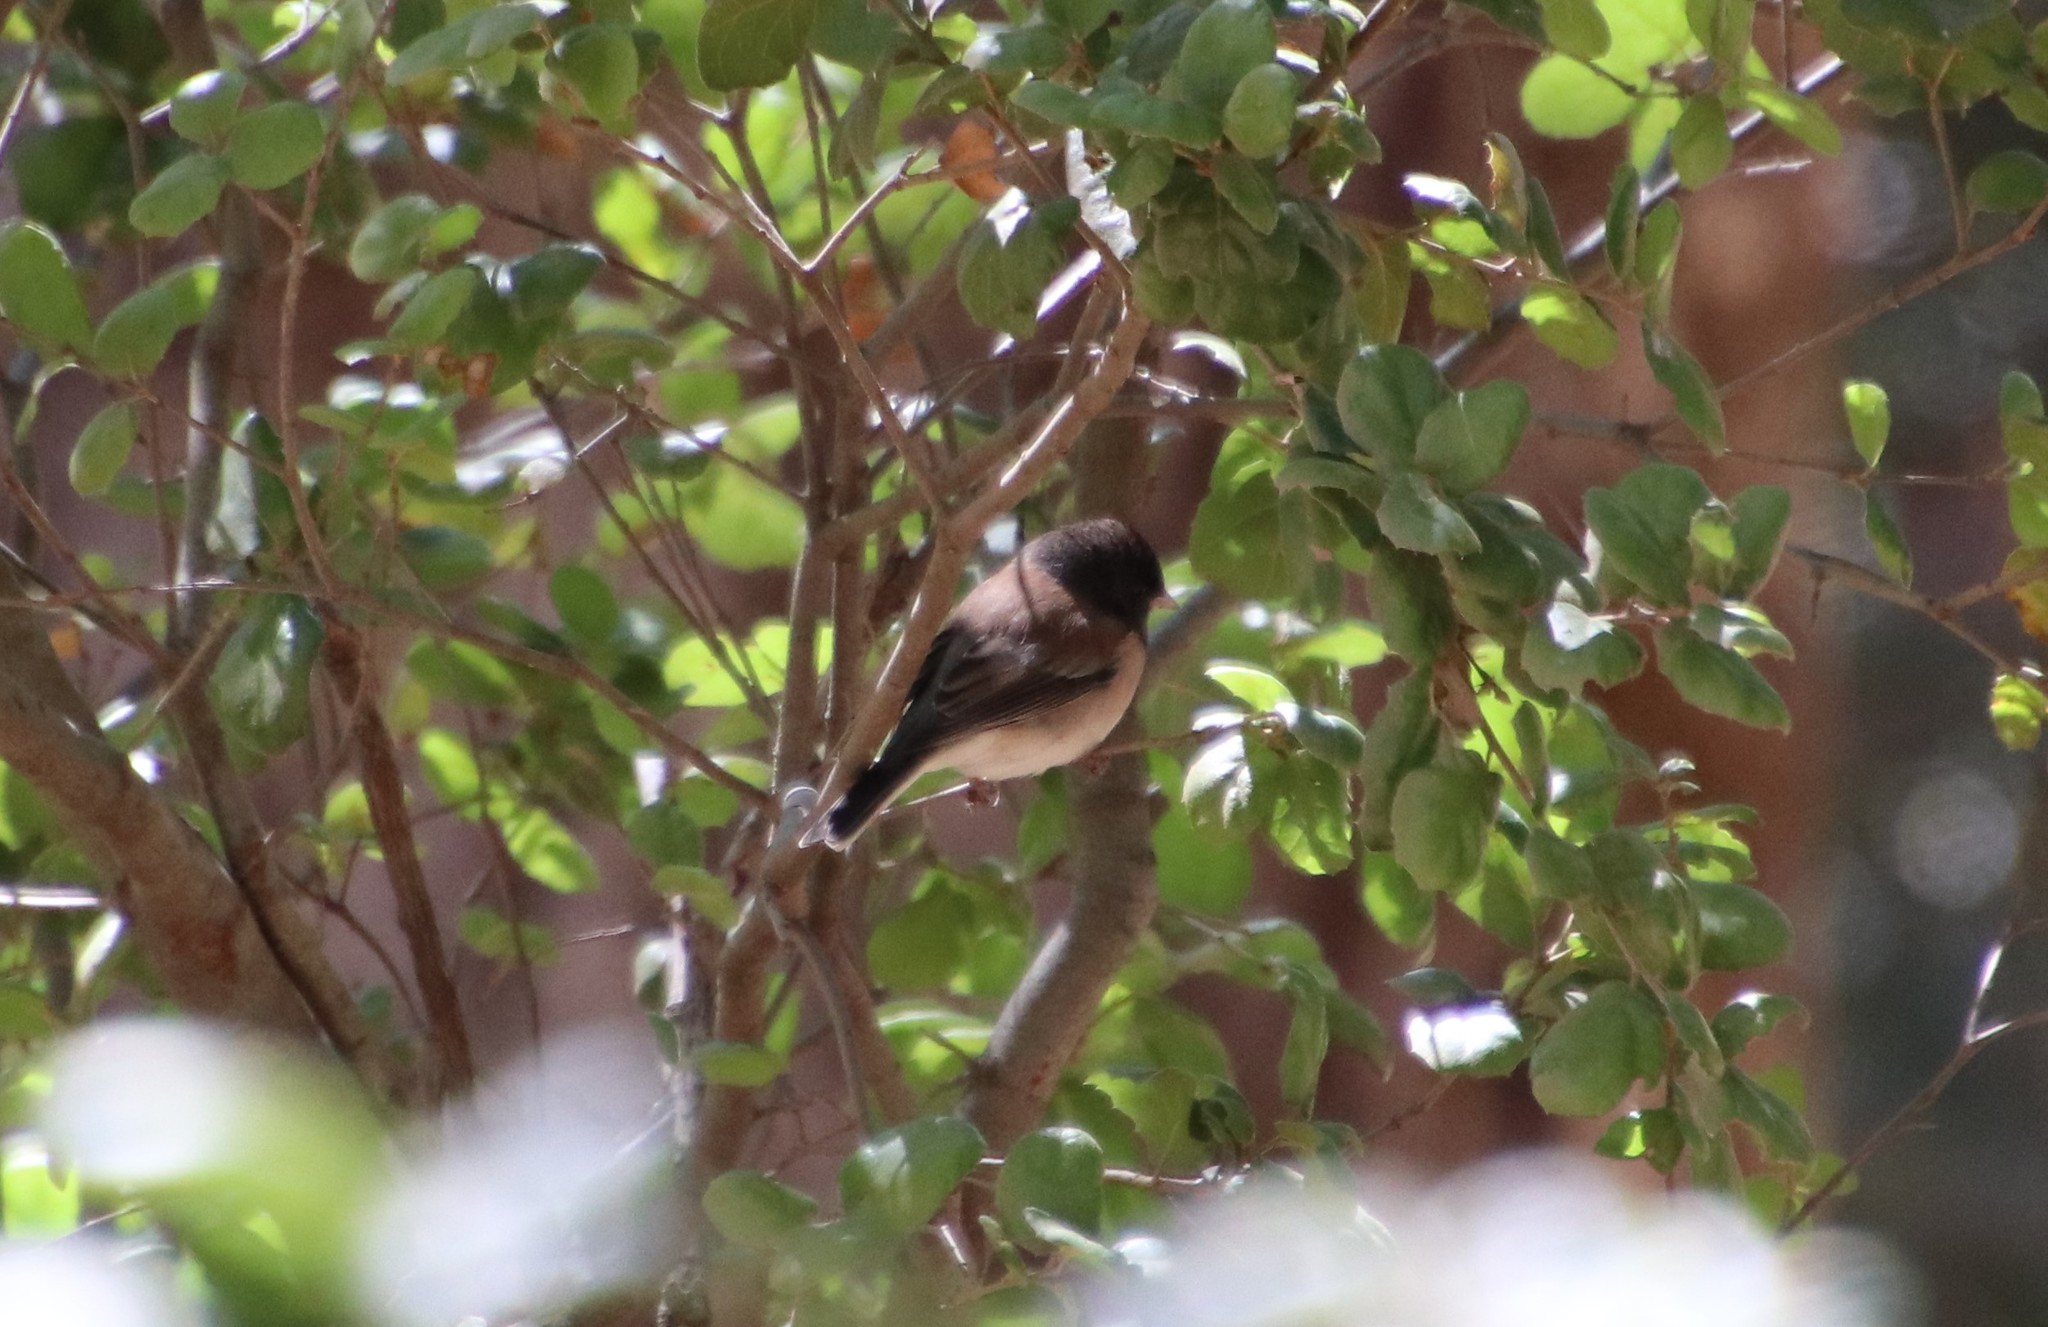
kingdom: Animalia
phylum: Chordata
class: Aves
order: Passeriformes
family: Passerellidae
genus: Junco
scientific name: Junco hyemalis
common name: Dark-eyed junco
